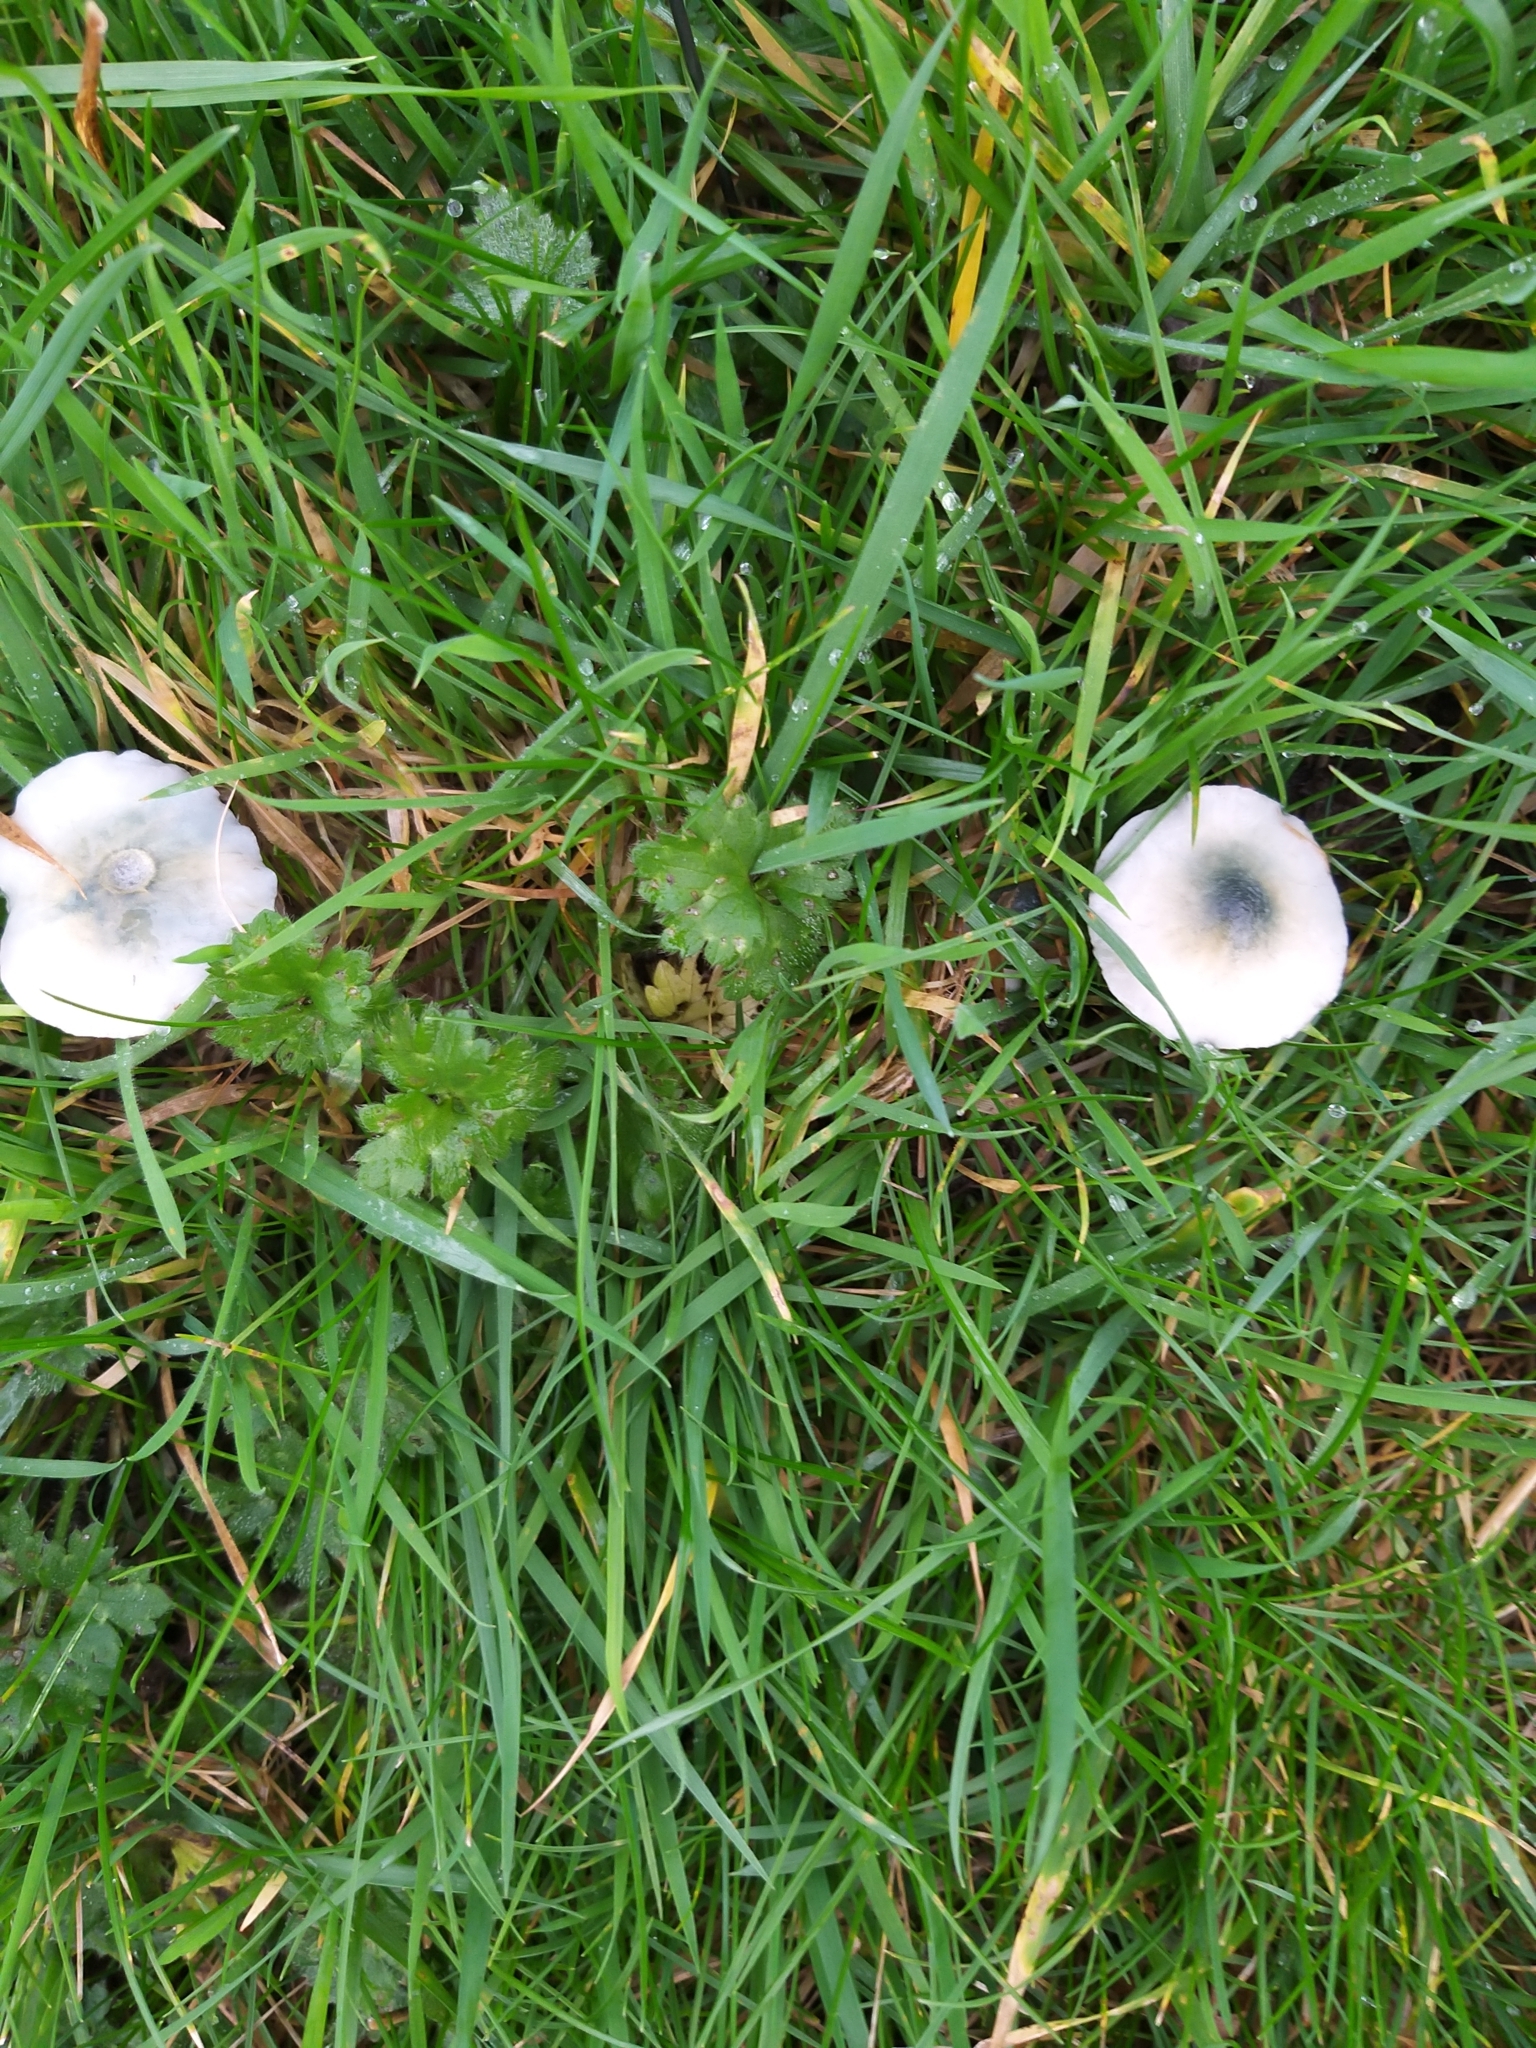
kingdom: Fungi
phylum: Basidiomycota
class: Agaricomycetes
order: Agaricales
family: Strophariaceae
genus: Stropharia
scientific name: Stropharia pseudocyanea
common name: Peppery roundhead
